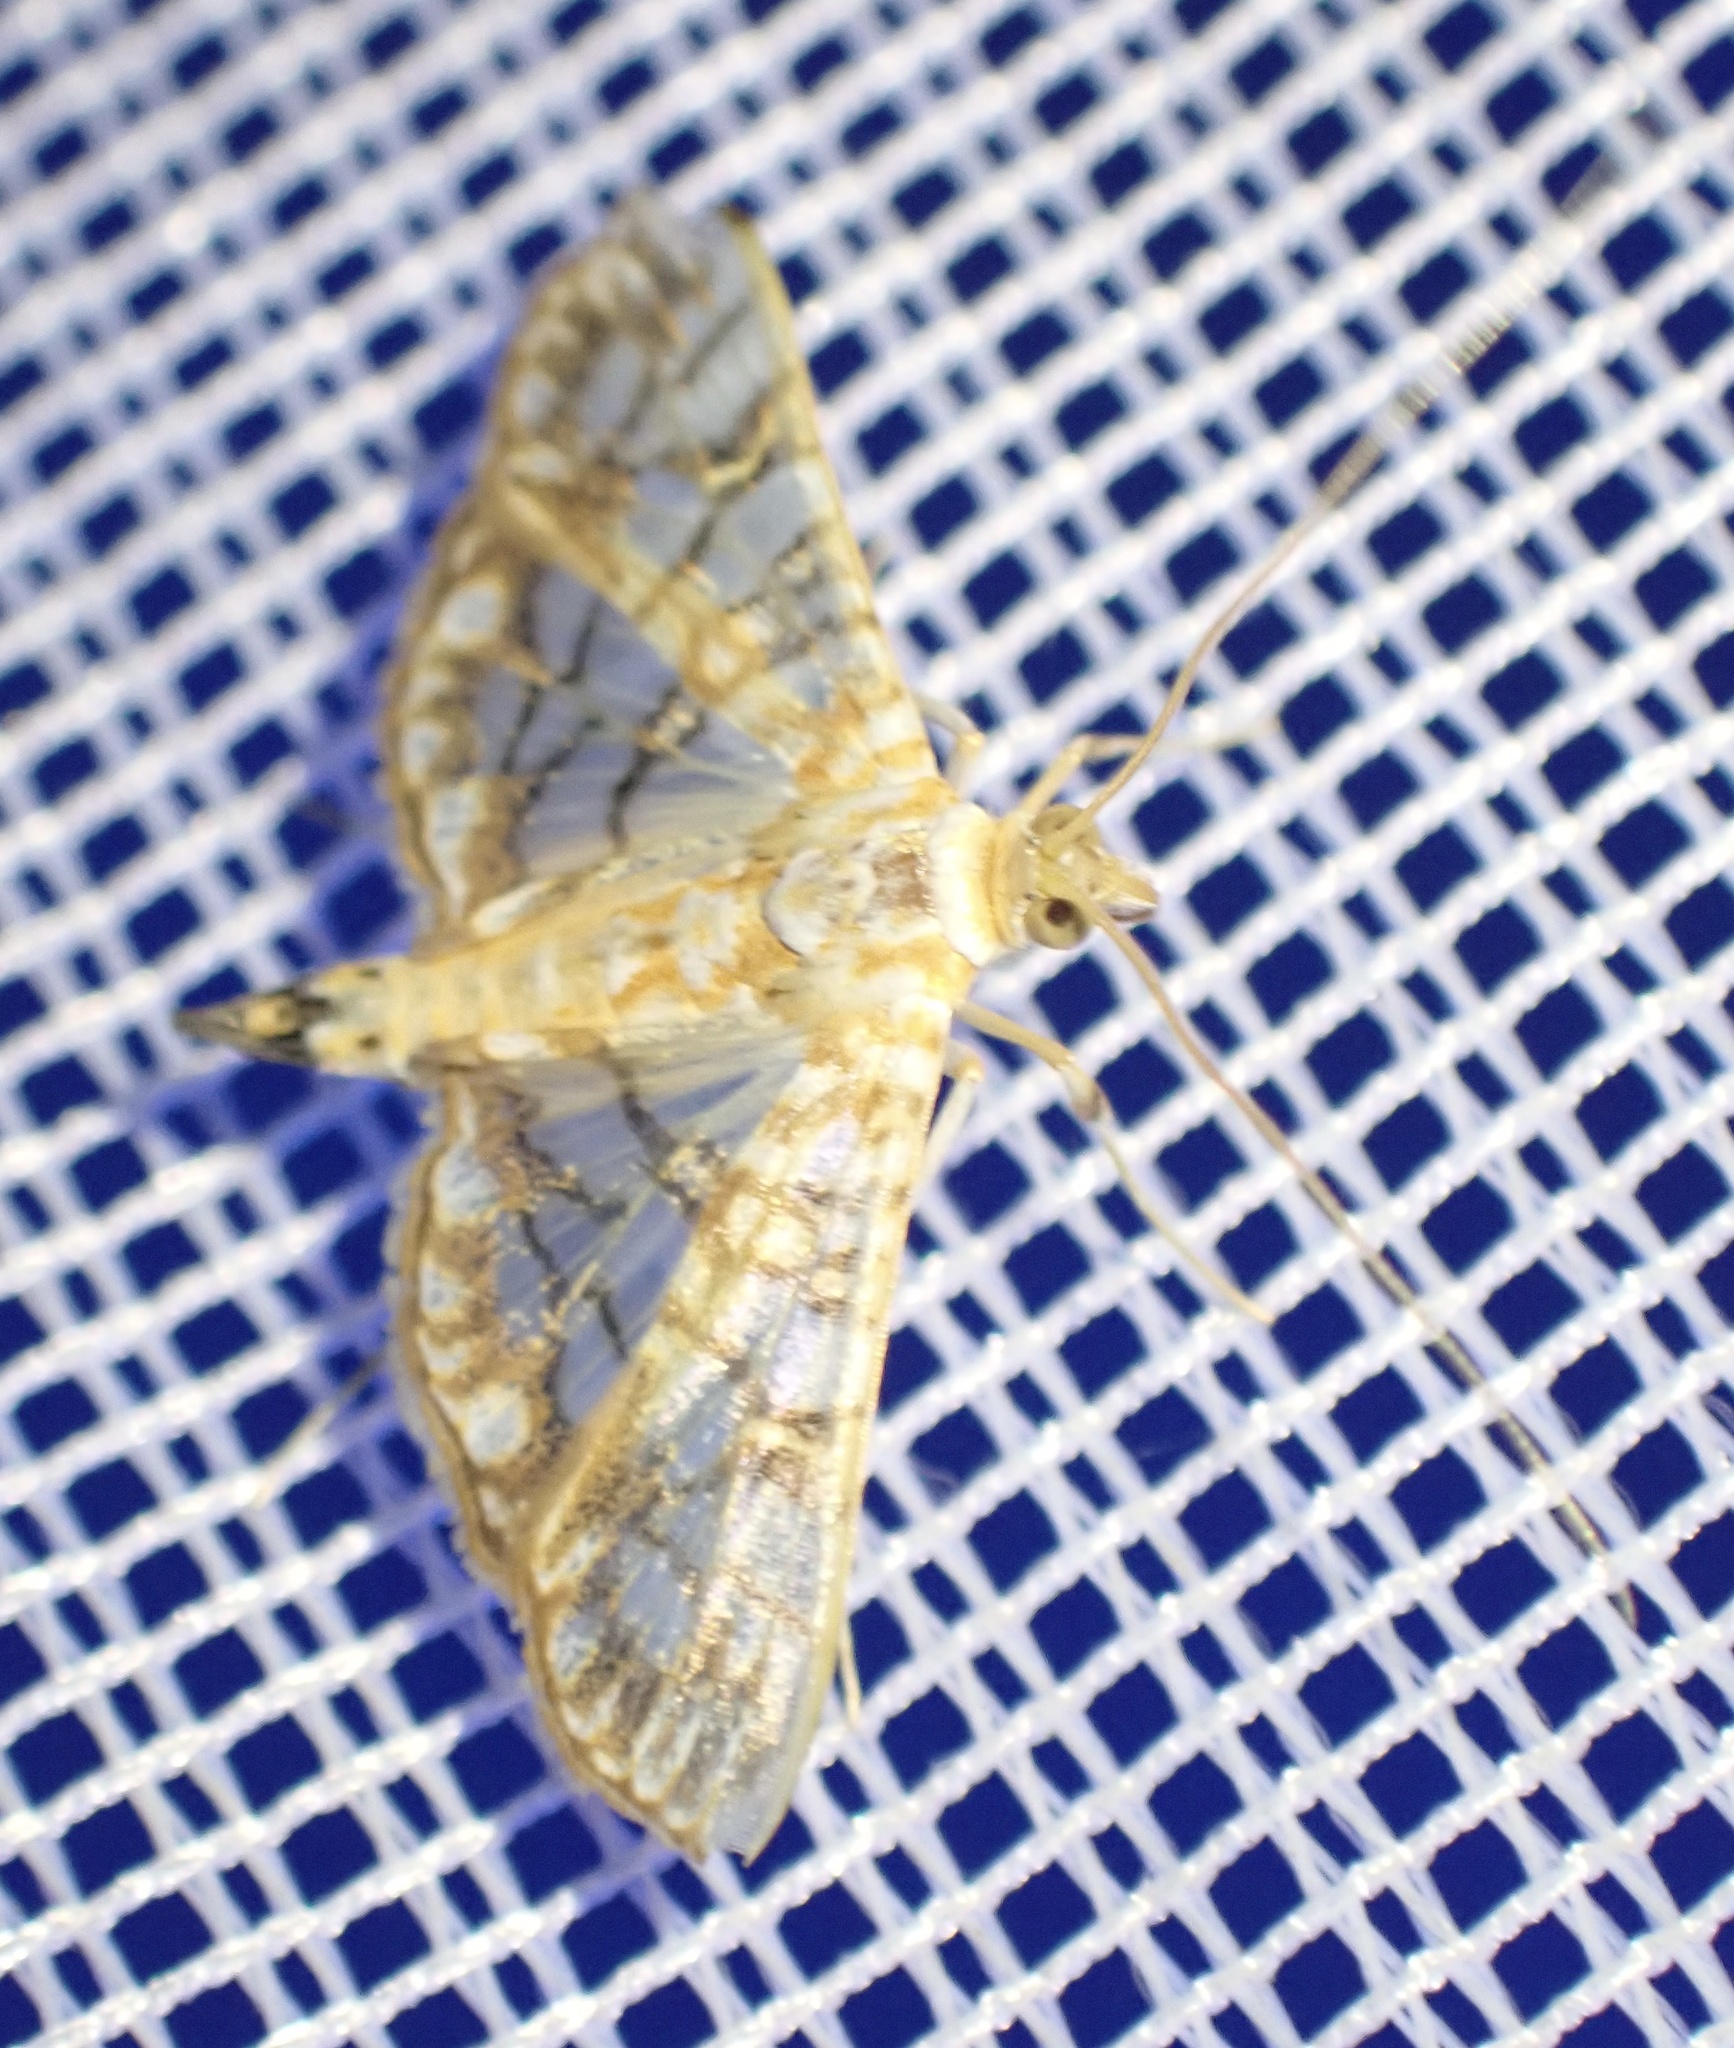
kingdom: Animalia
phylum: Arthropoda
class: Insecta
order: Lepidoptera
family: Crambidae
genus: Synclera
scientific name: Synclera traducalis
